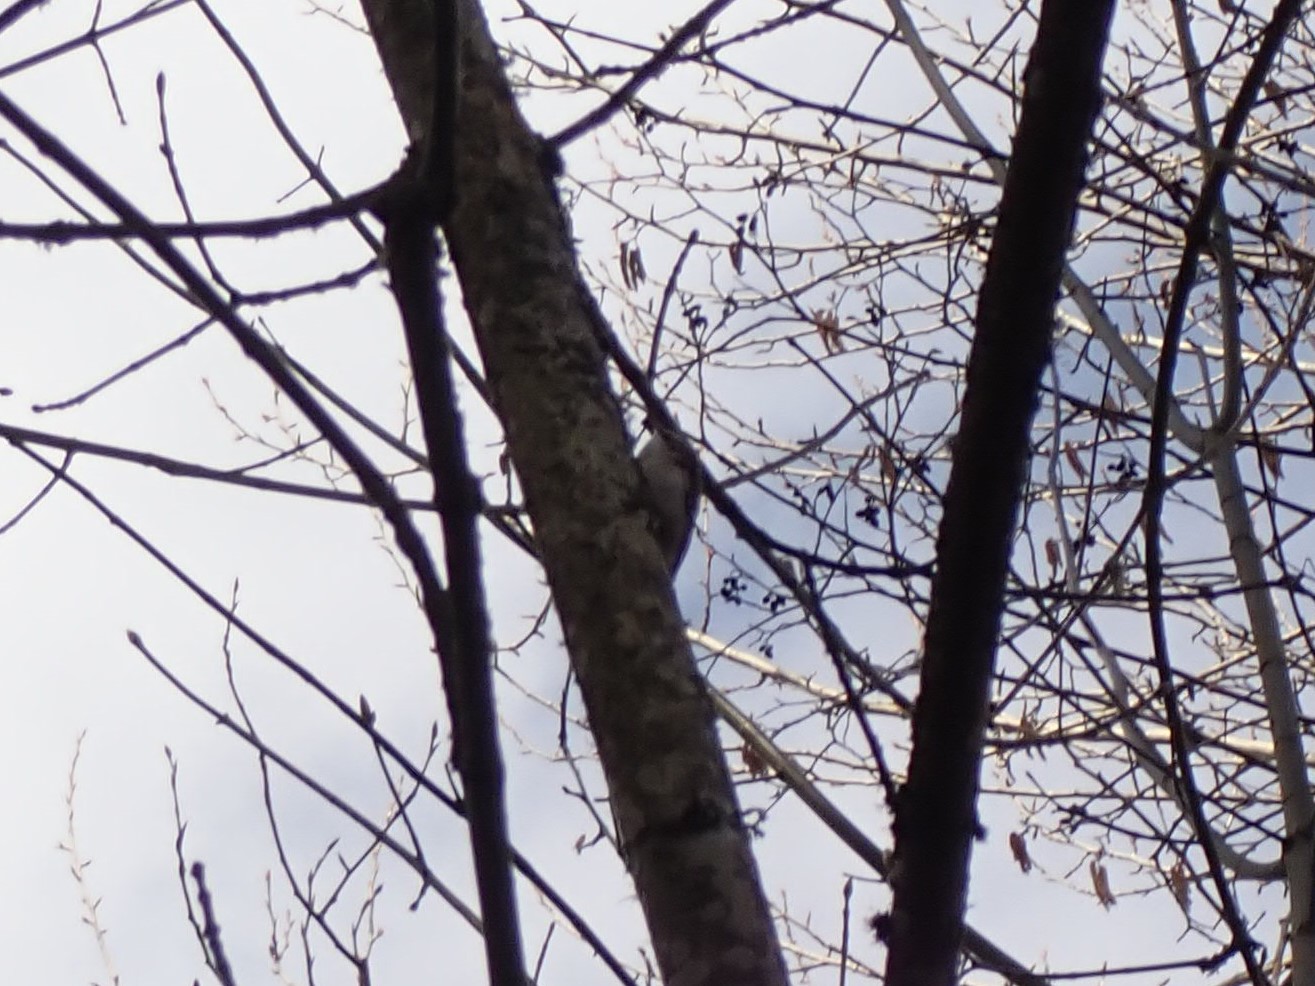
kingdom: Animalia
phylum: Chordata
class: Aves
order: Passeriformes
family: Certhiidae
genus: Certhia
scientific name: Certhia americana
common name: Brown creeper
